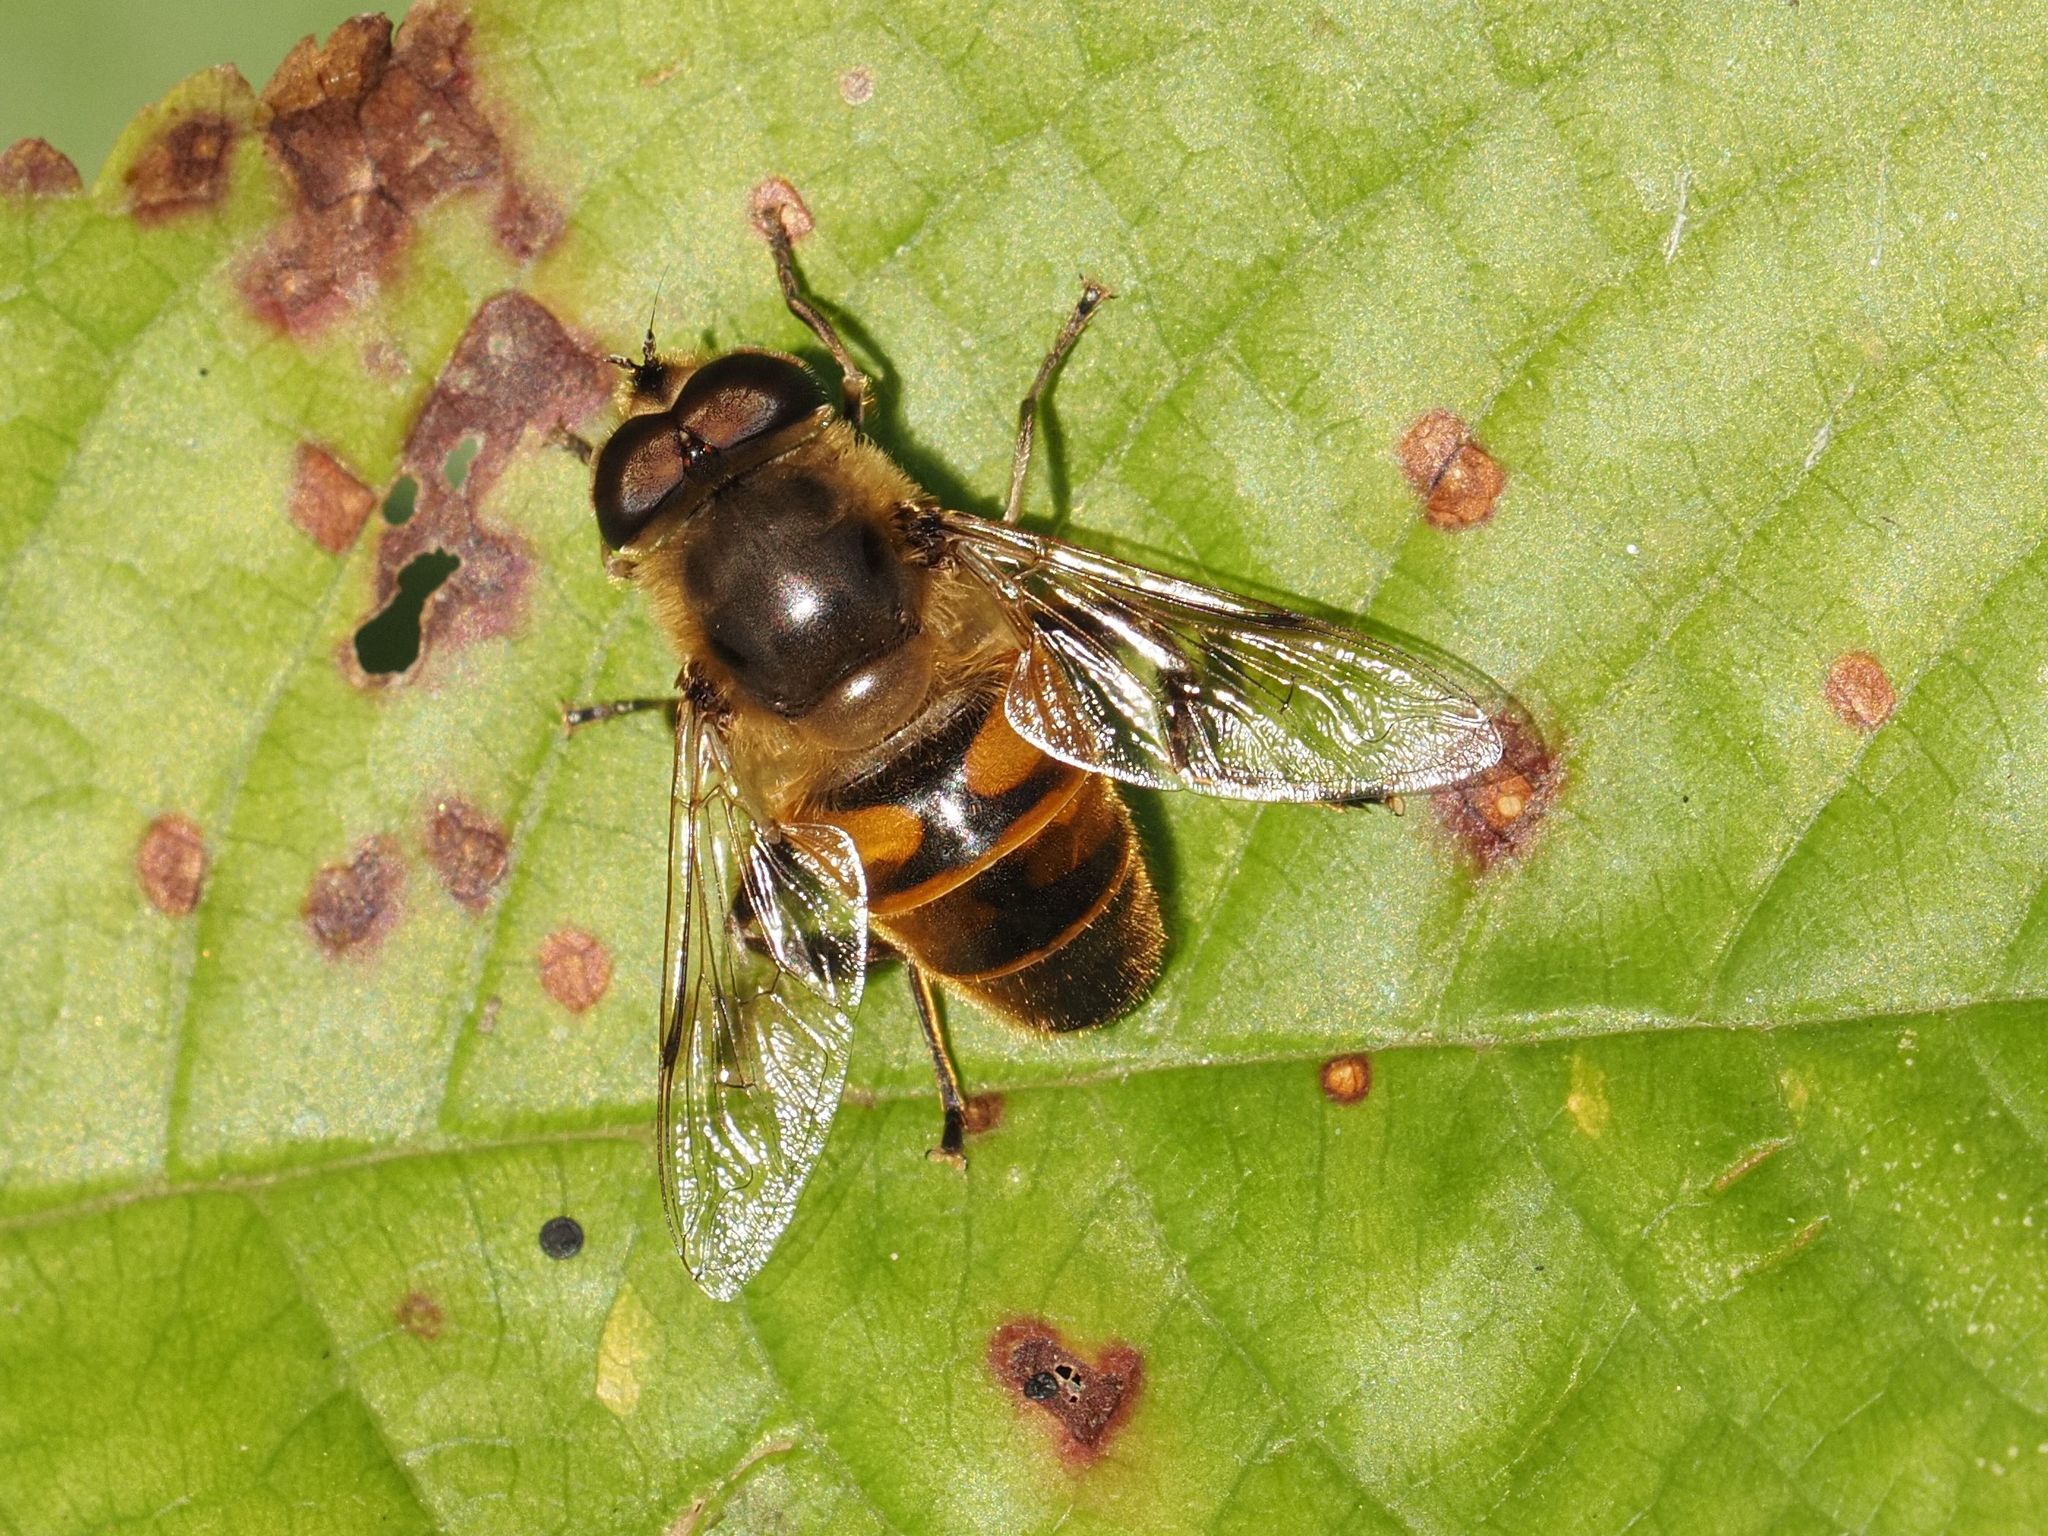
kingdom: Animalia
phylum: Arthropoda
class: Insecta
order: Diptera
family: Syrphidae
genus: Eristalis
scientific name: Eristalis tenax
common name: Drone fly
